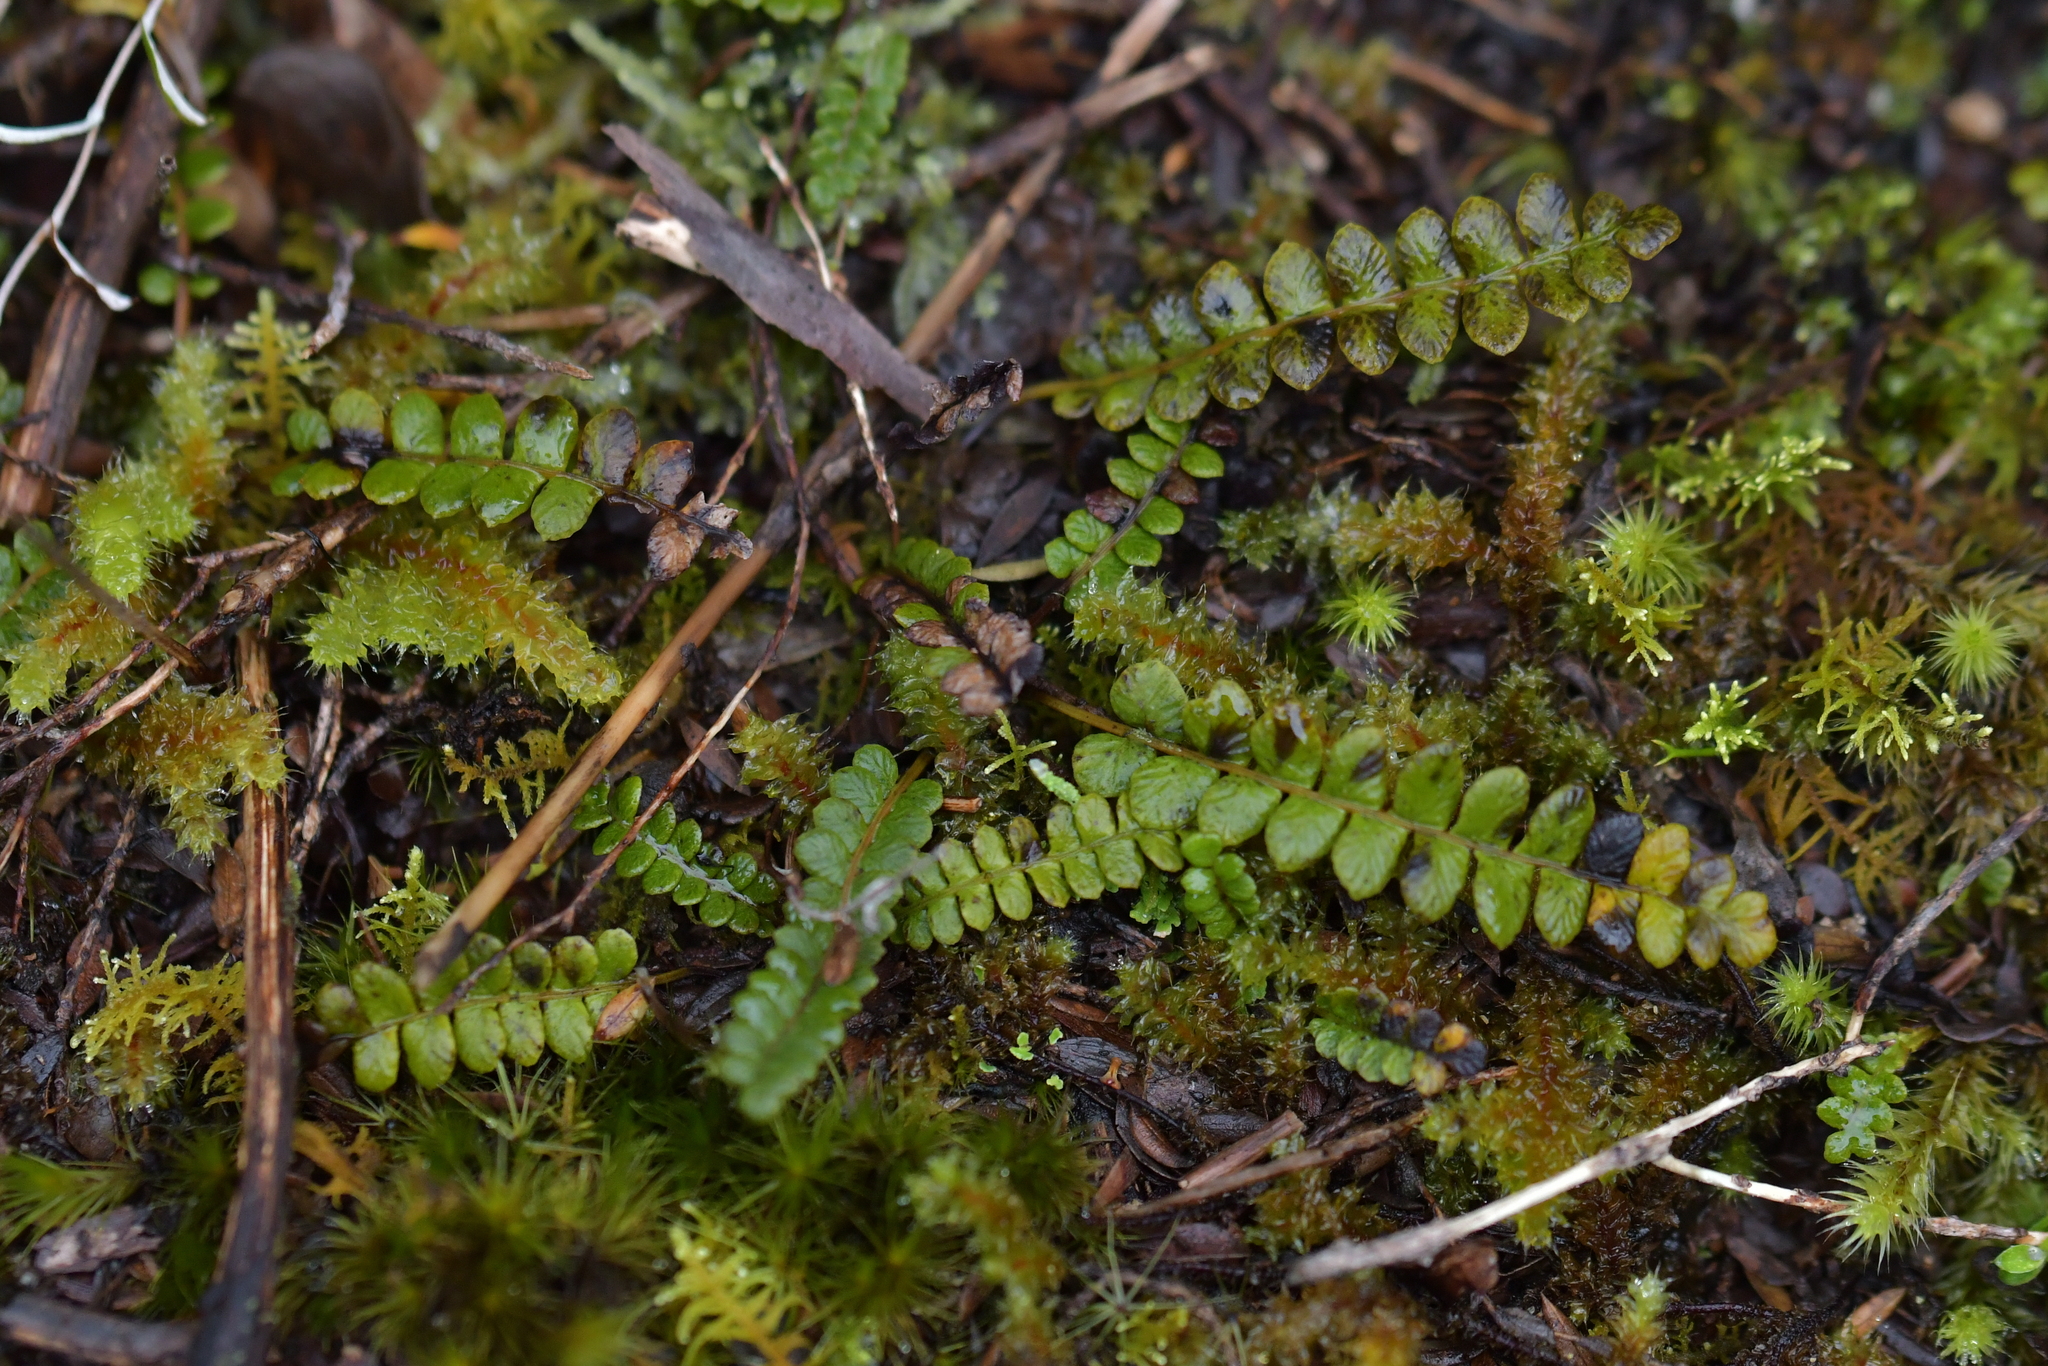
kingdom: Plantae
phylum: Tracheophyta
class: Polypodiopsida
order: Polypodiales
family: Blechnaceae
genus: Austroblechnum
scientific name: Austroblechnum penna-marina
